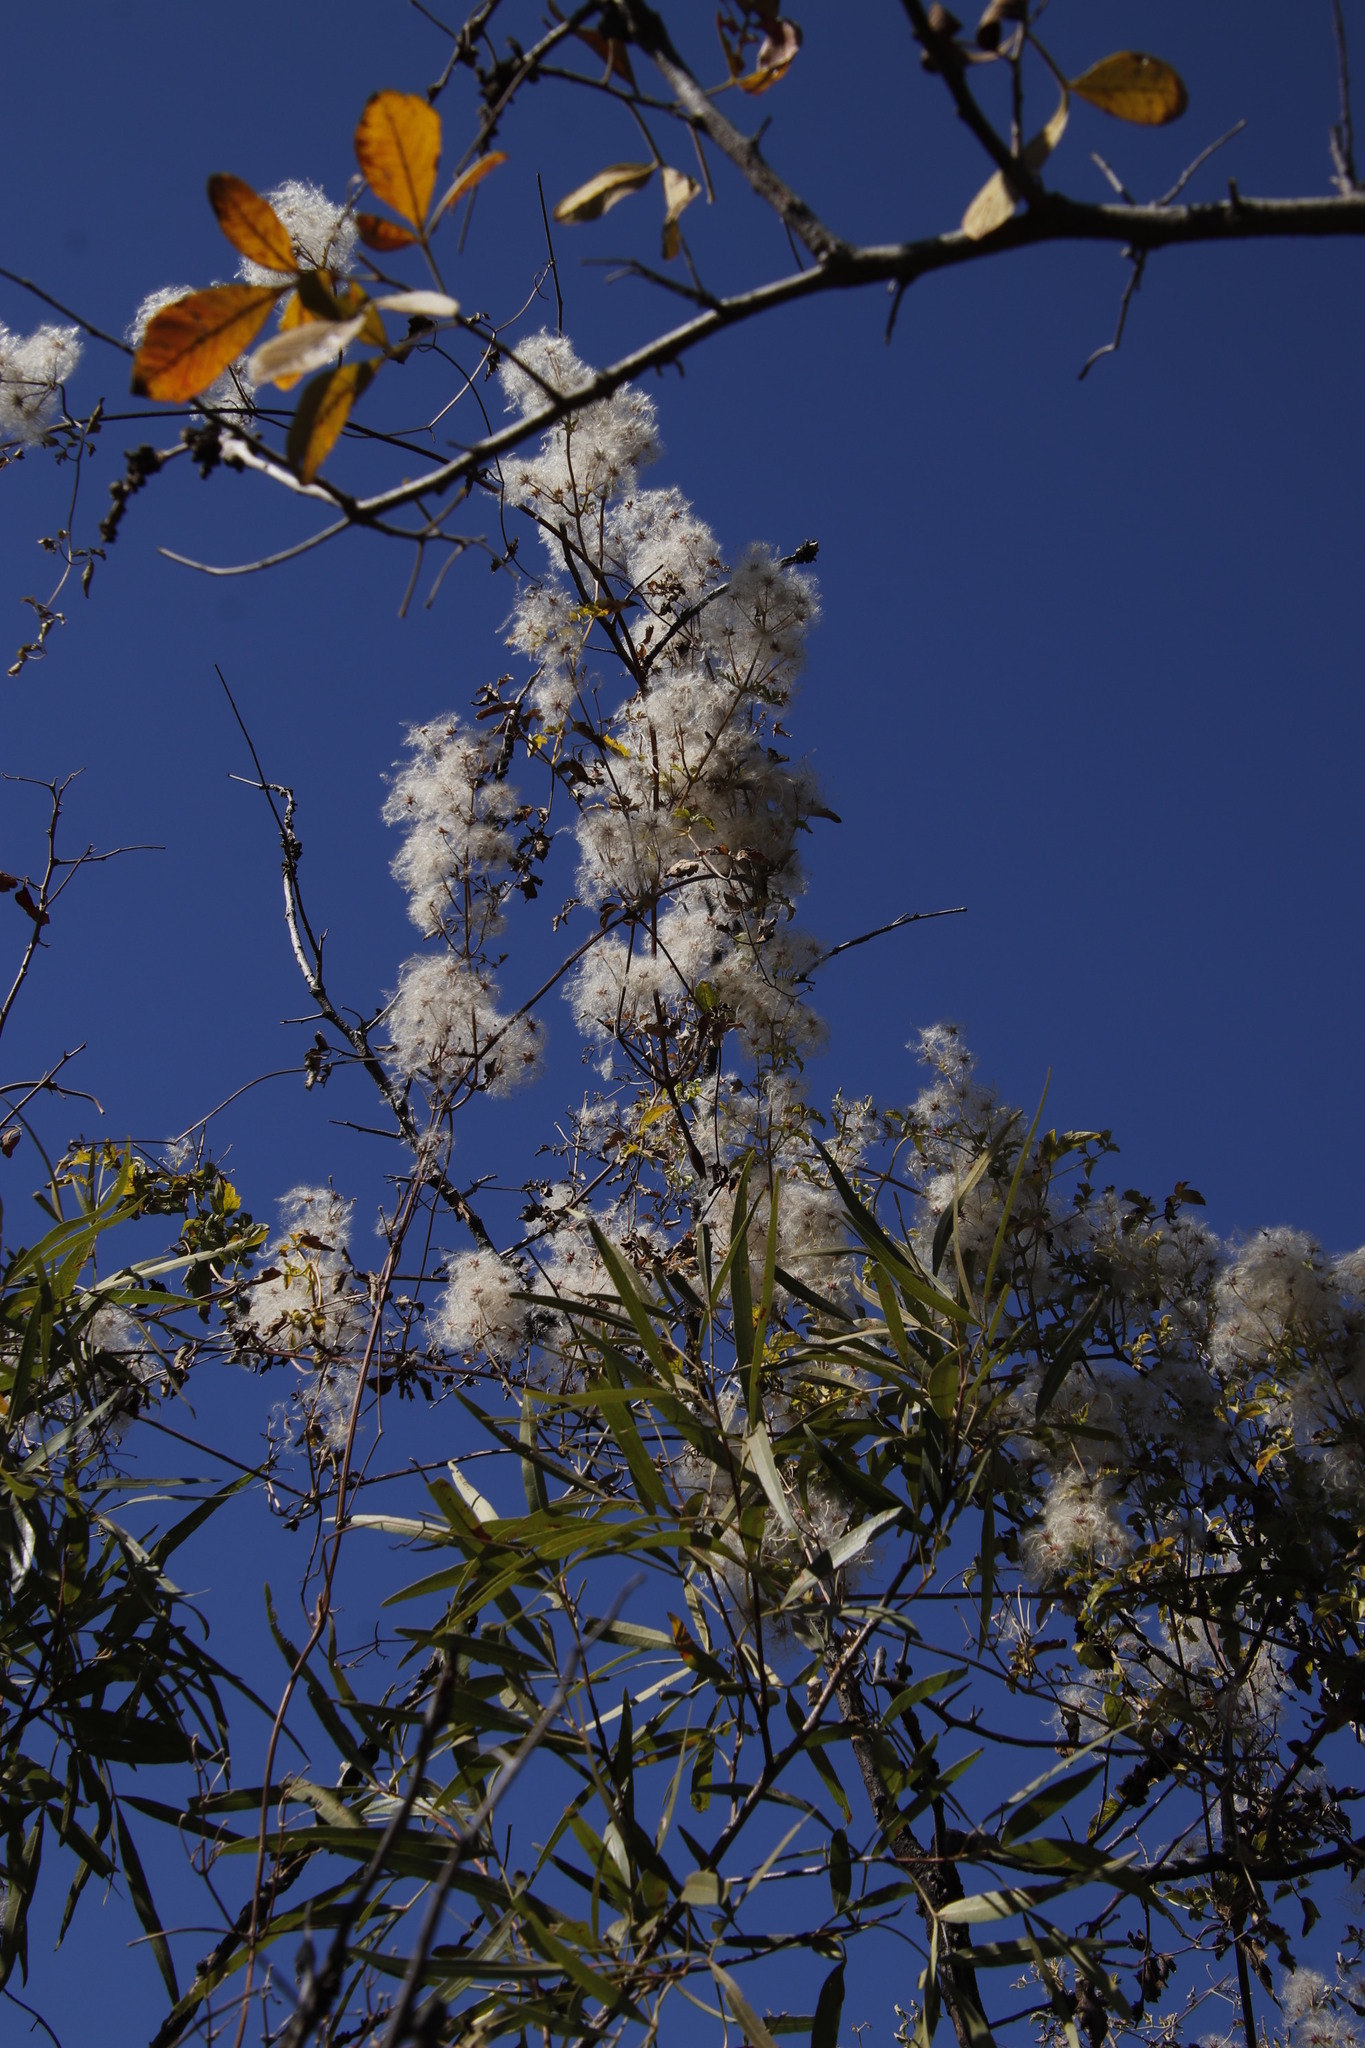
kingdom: Plantae
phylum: Tracheophyta
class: Magnoliopsida
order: Ranunculales
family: Ranunculaceae
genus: Clematis
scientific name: Clematis brachiata
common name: Traveler's-joy
